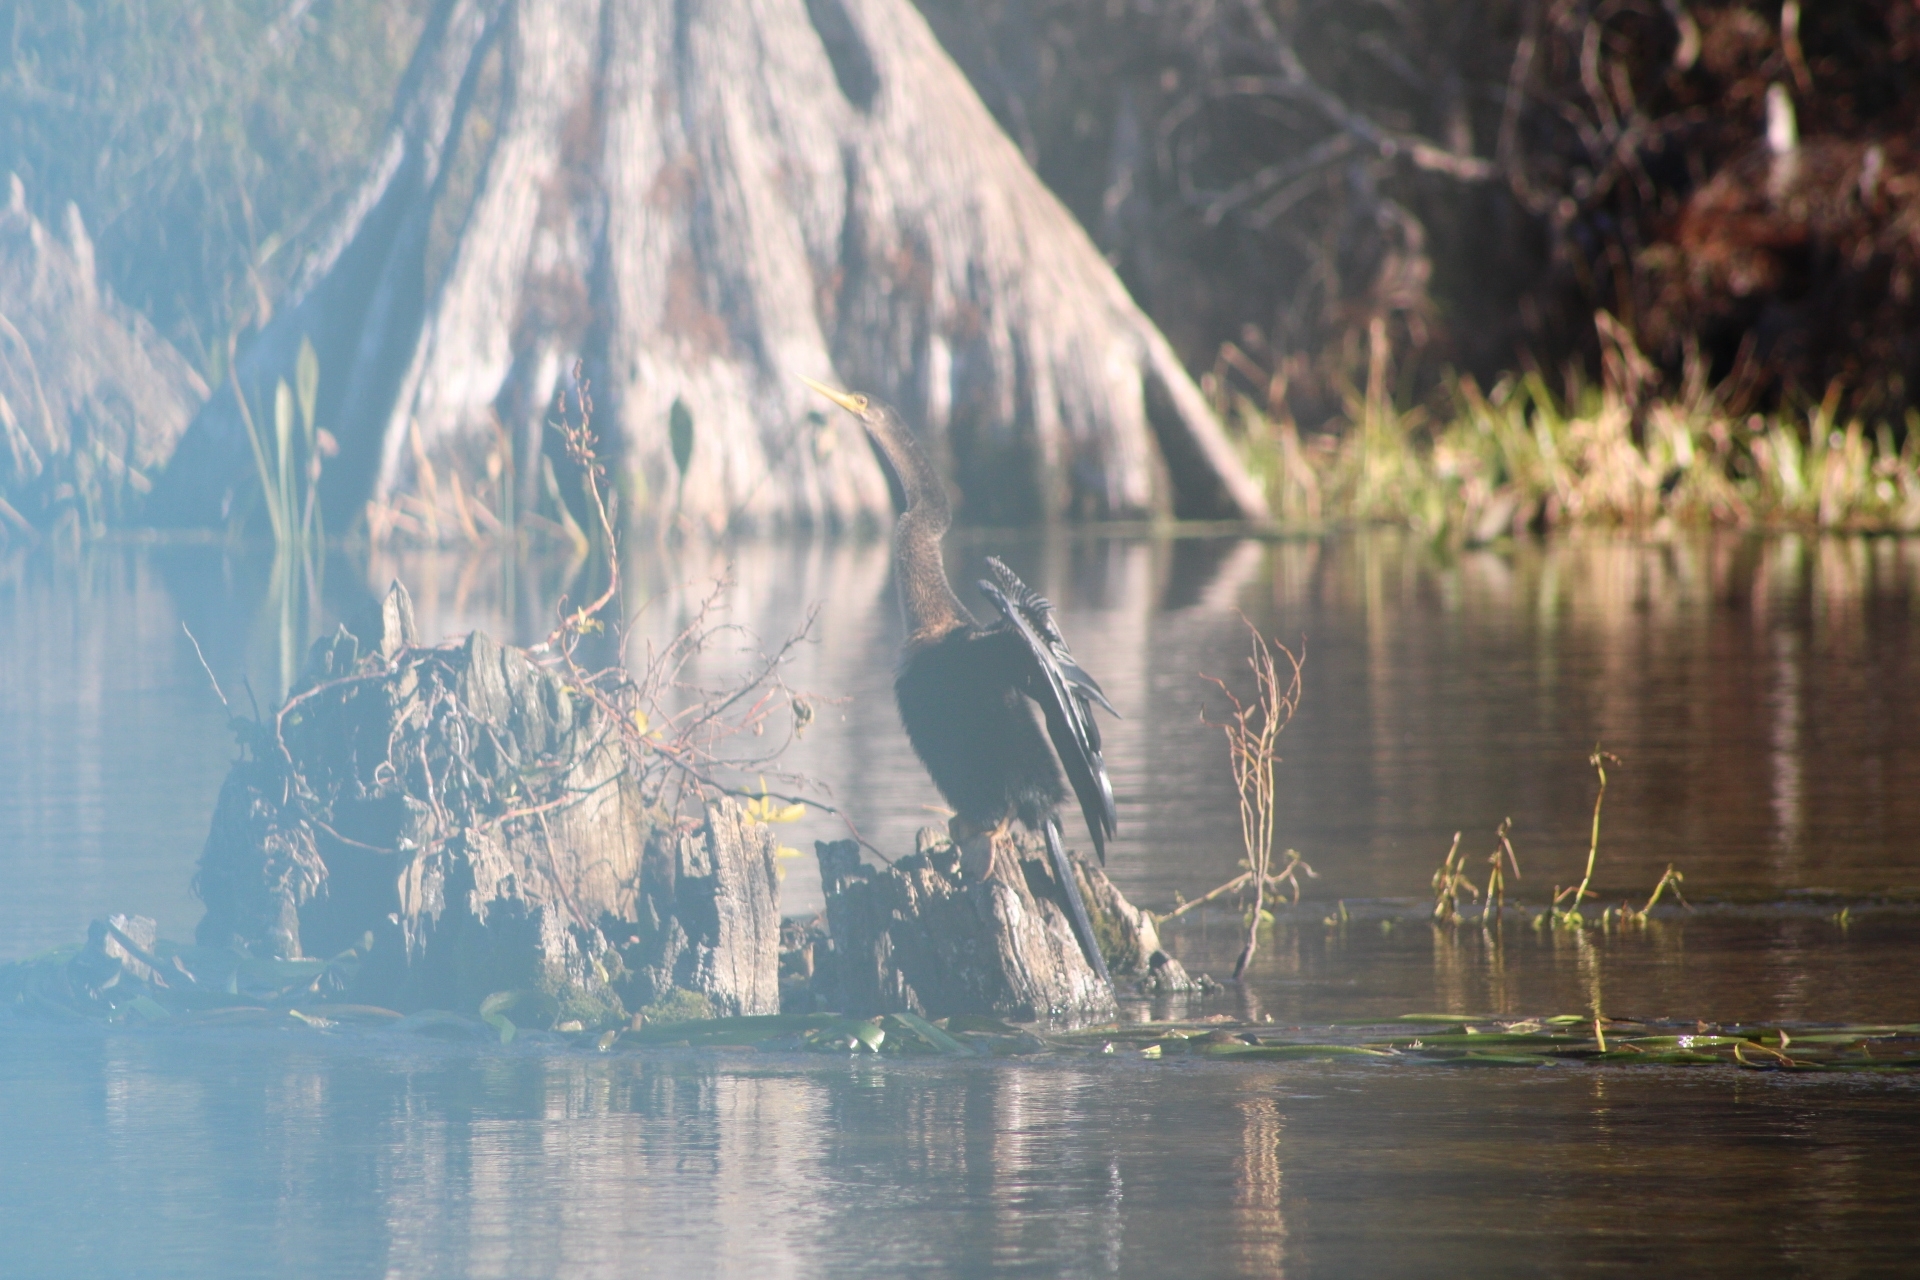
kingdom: Animalia
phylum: Chordata
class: Aves
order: Suliformes
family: Anhingidae
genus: Anhinga
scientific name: Anhinga anhinga
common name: Anhinga
